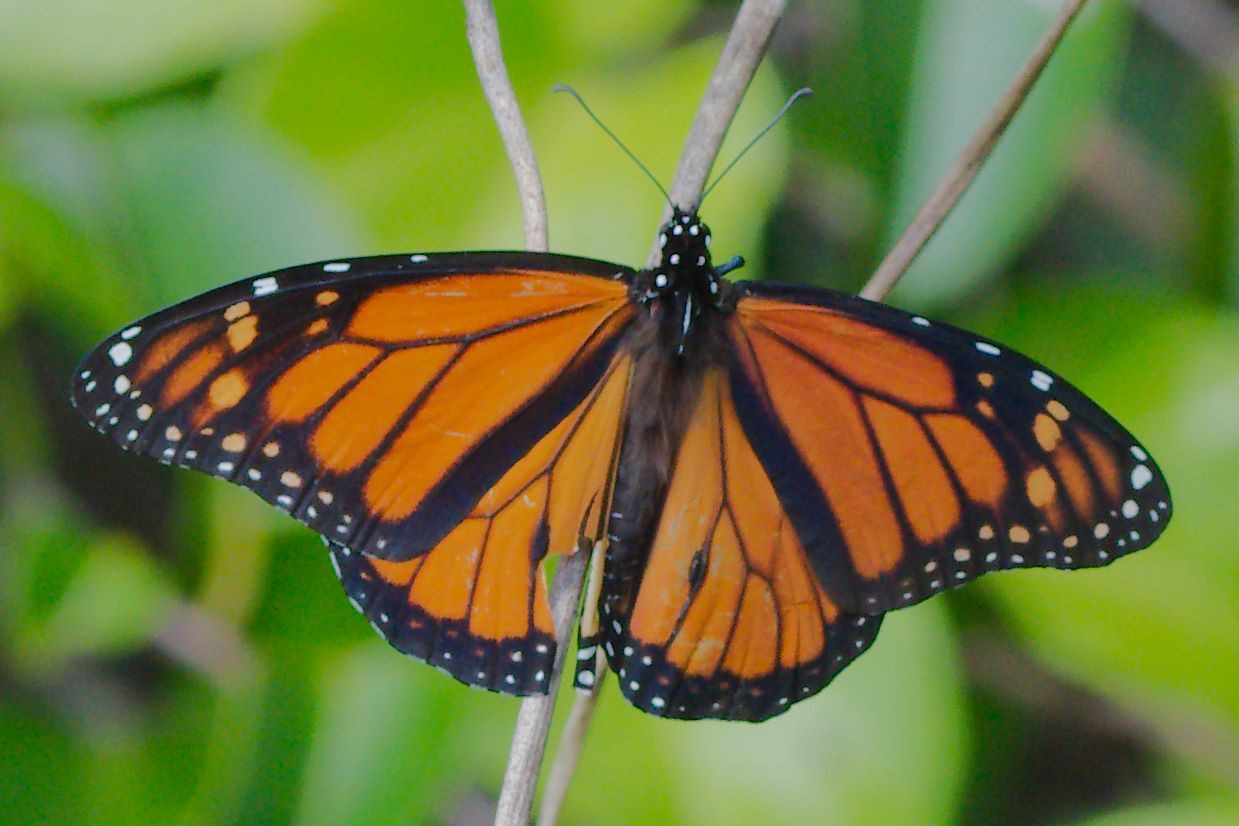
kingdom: Animalia
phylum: Arthropoda
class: Insecta
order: Lepidoptera
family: Nymphalidae
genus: Danaus
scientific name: Danaus plexippus
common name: Monarch
